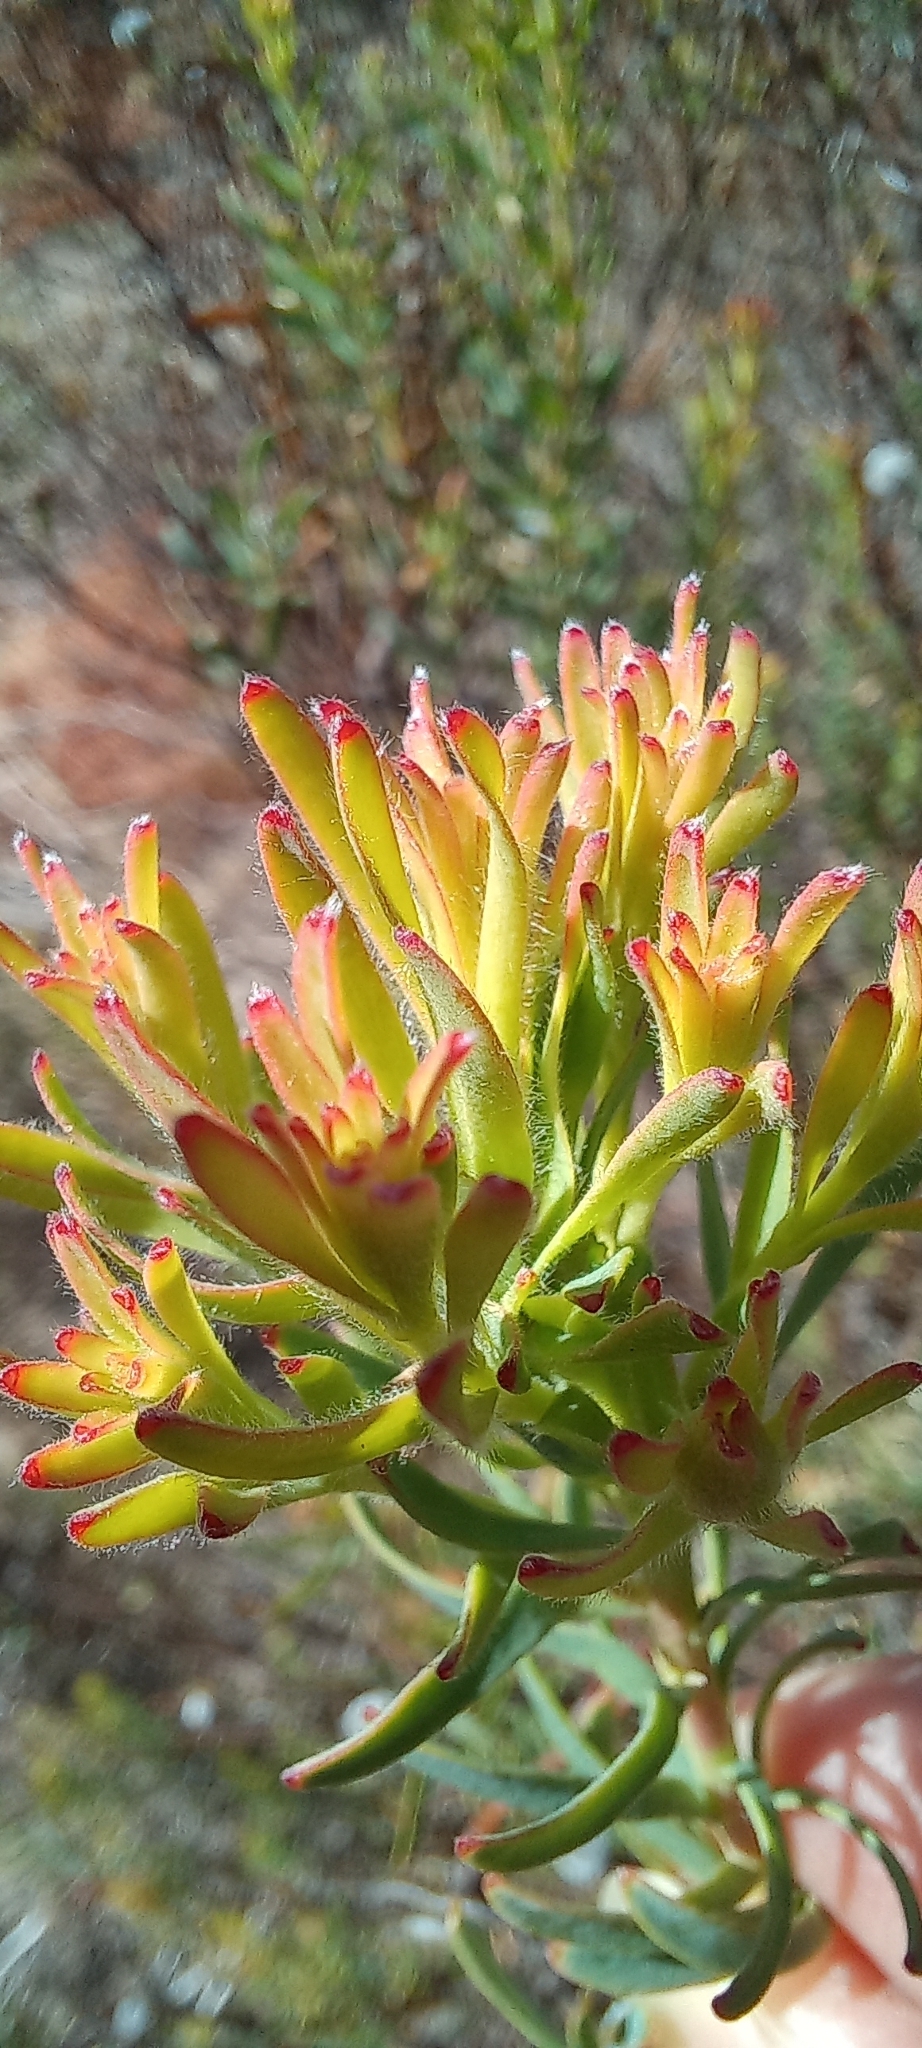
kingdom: Plantae
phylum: Tracheophyta
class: Magnoliopsida
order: Proteales
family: Proteaceae
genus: Leucadendron
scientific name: Leucadendron modestum
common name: Rough-leaf conebush
